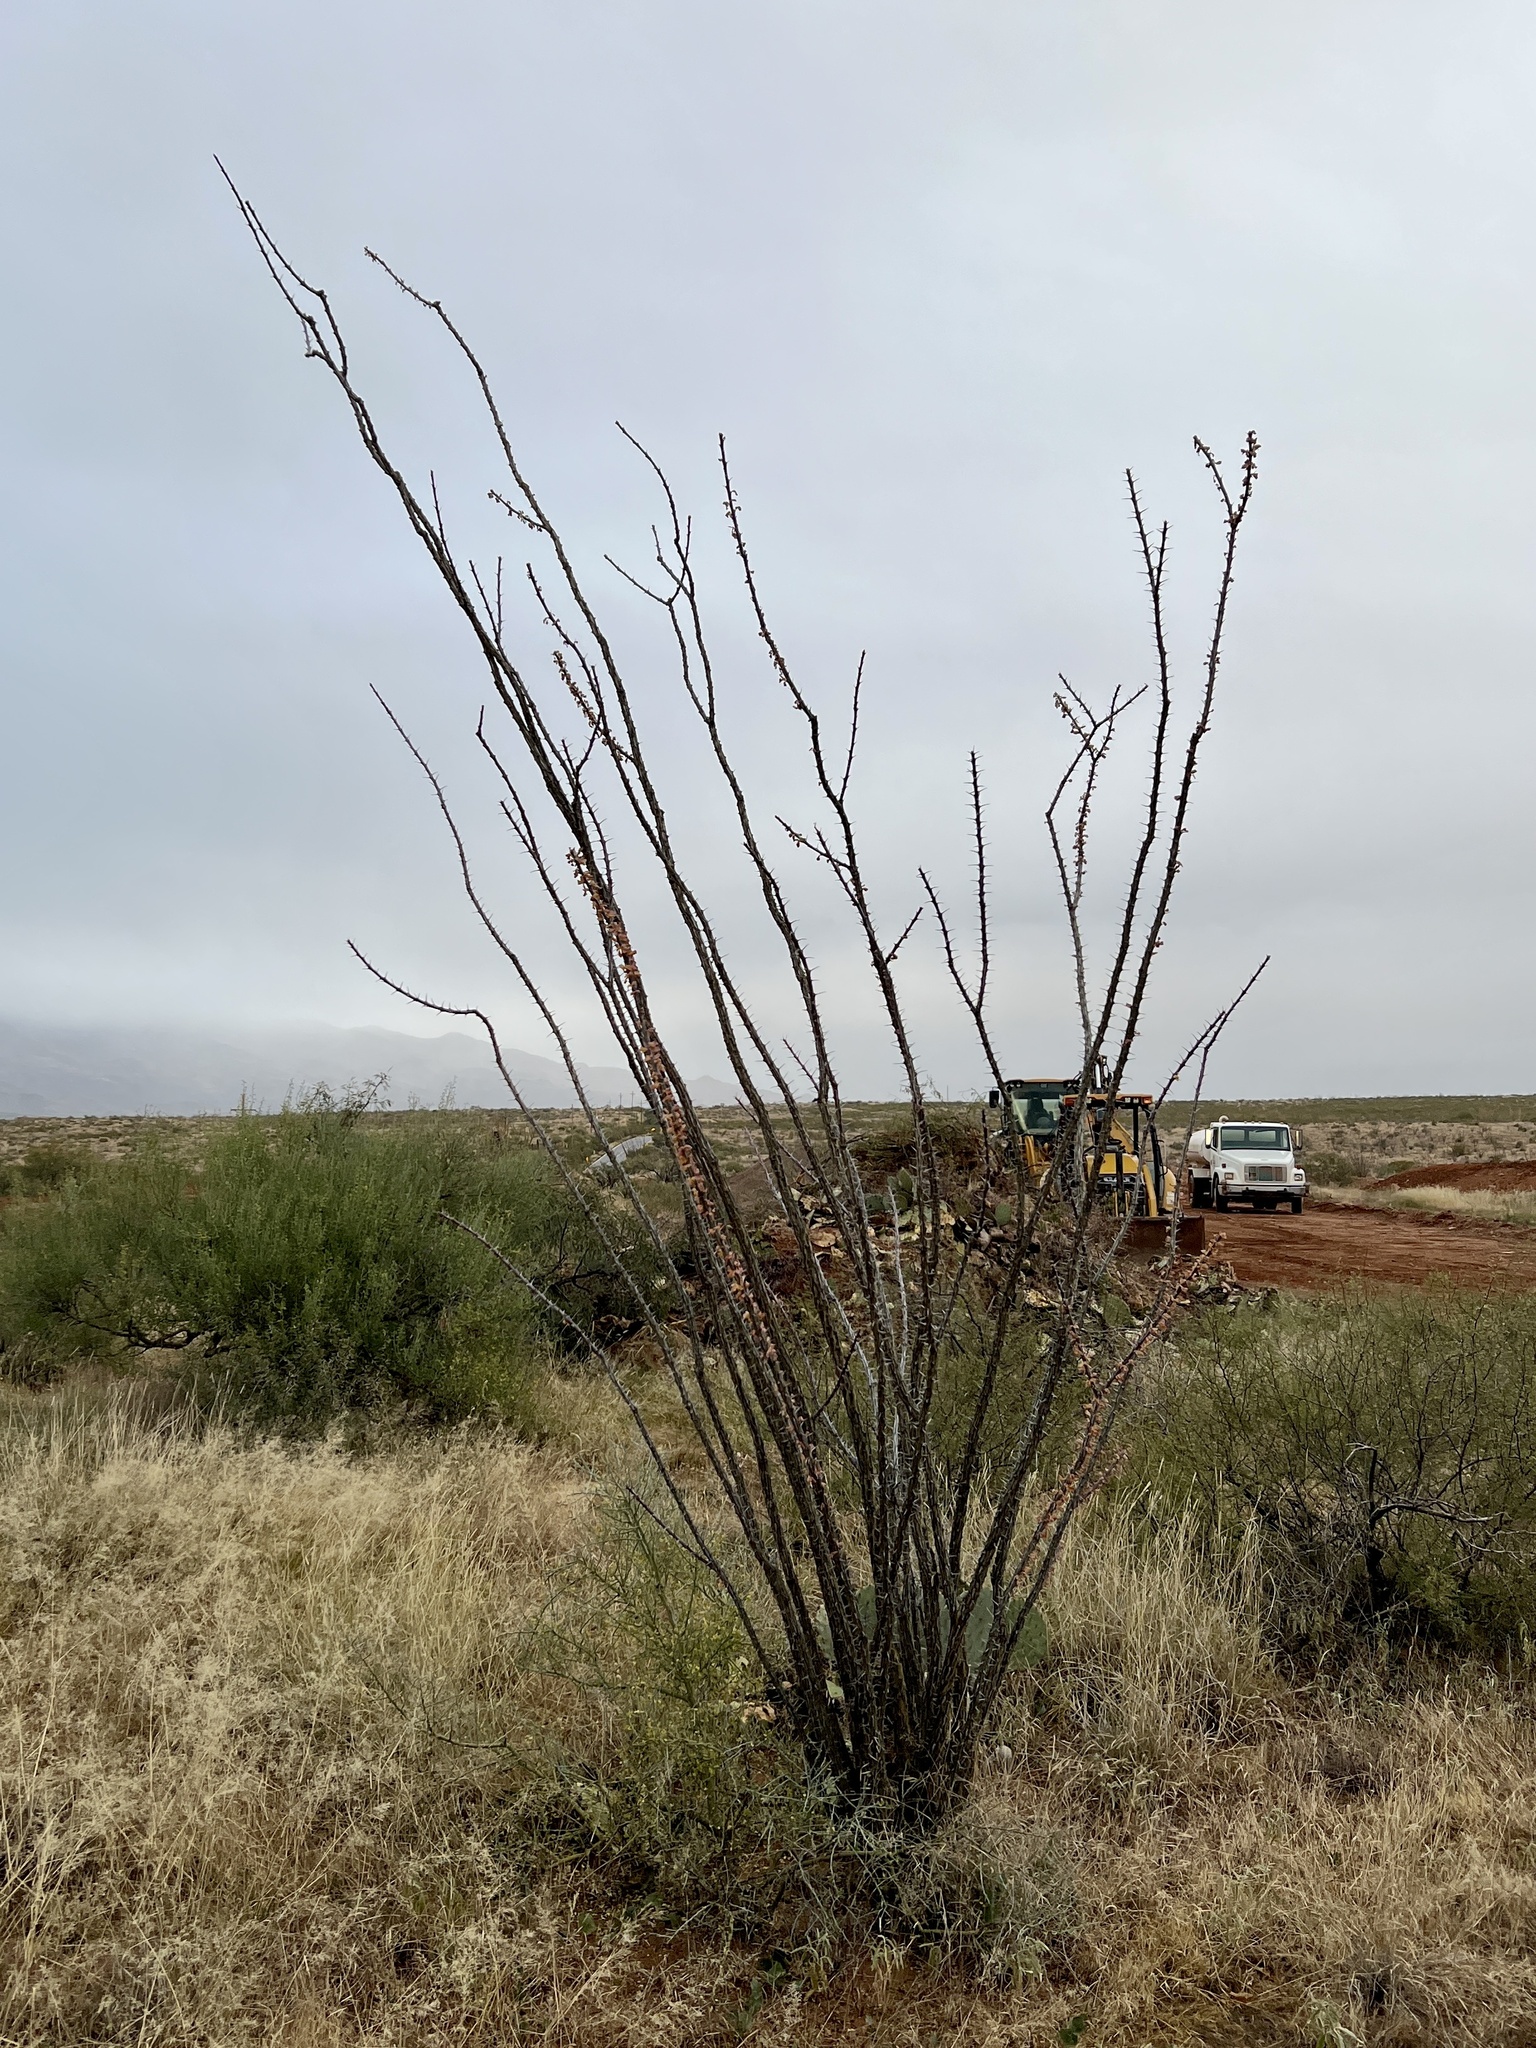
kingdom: Plantae
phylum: Tracheophyta
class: Magnoliopsida
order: Ericales
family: Fouquieriaceae
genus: Fouquieria
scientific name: Fouquieria splendens
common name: Vine-cactus
